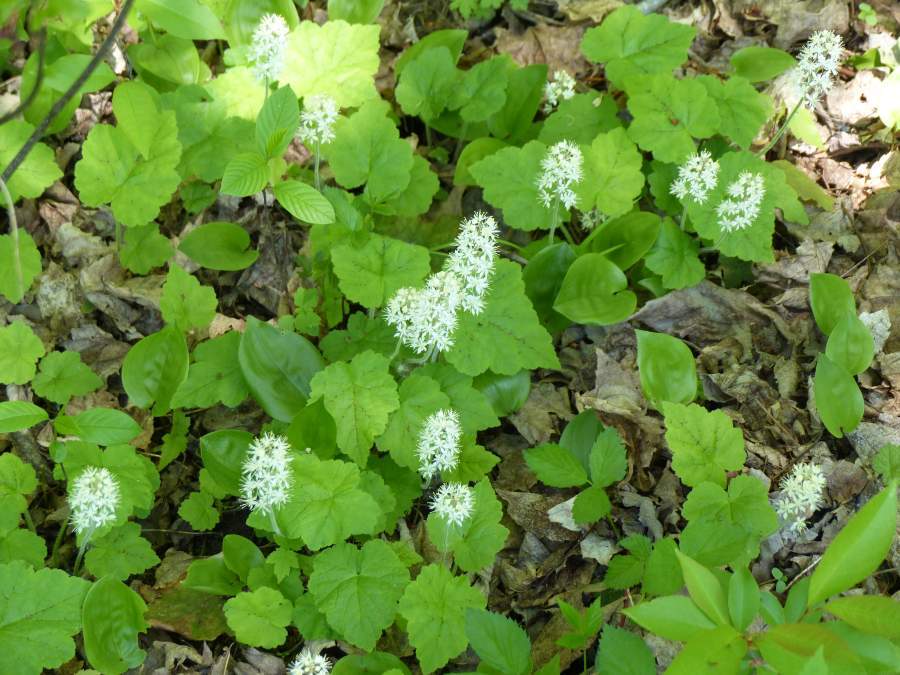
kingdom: Plantae
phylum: Tracheophyta
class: Magnoliopsida
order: Saxifragales
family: Saxifragaceae
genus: Tiarella
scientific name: Tiarella stolonifera
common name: Stoloniferous foamflower
